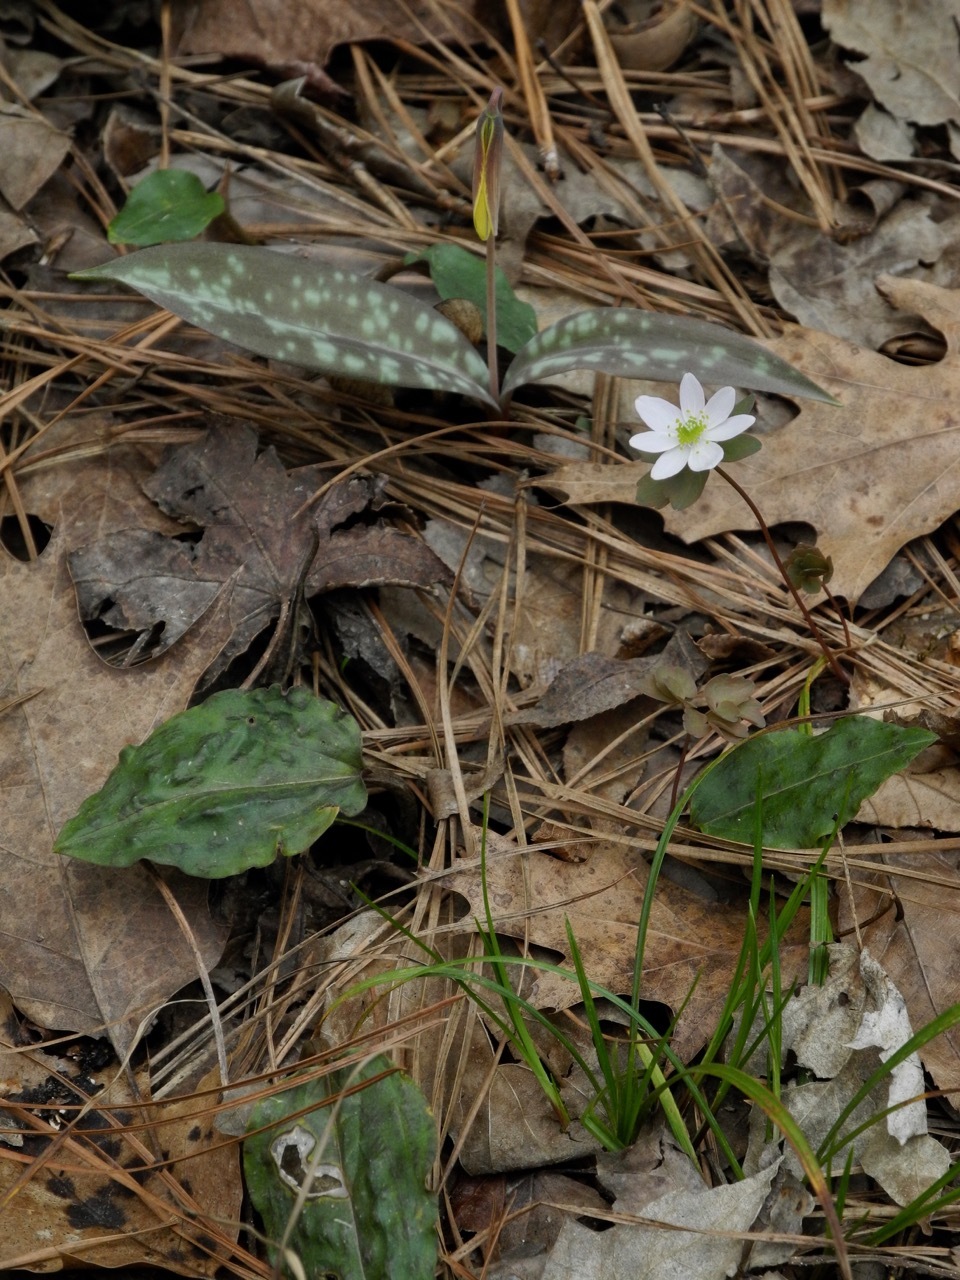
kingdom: Plantae
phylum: Tracheophyta
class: Liliopsida
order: Asparagales
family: Orchidaceae
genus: Tipularia
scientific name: Tipularia discolor
